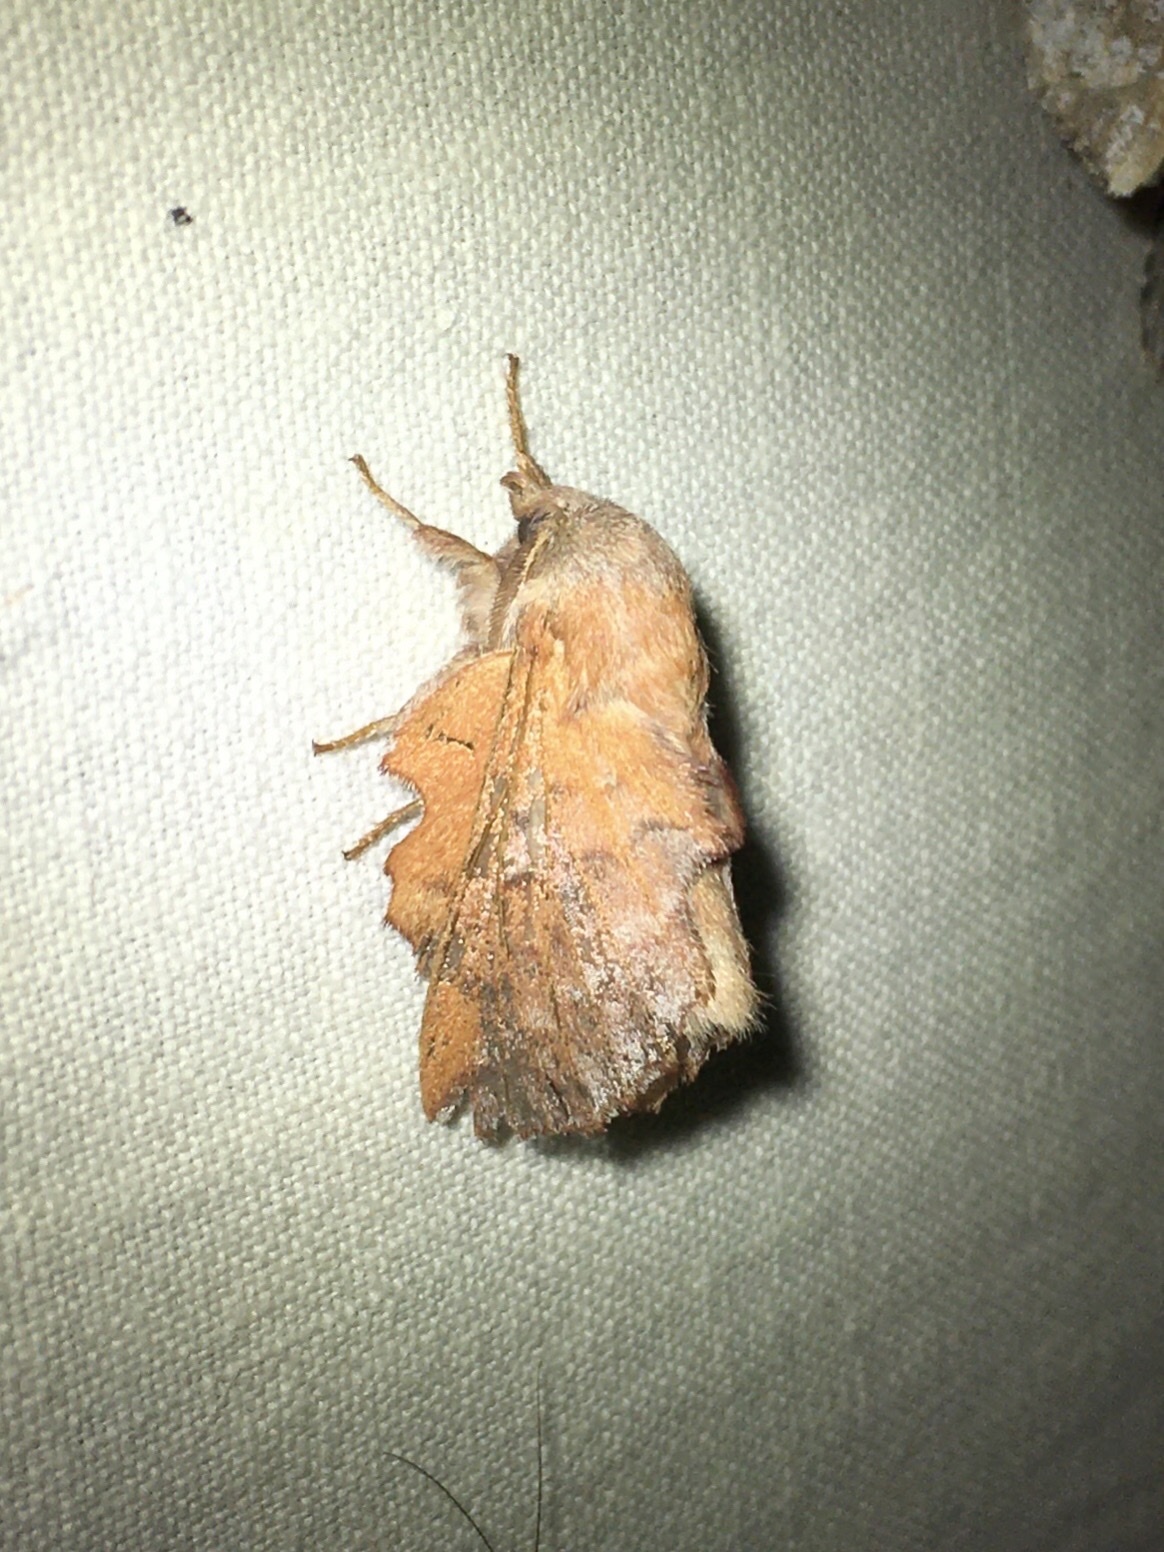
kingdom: Animalia
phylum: Arthropoda
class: Insecta
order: Lepidoptera
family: Lasiocampidae
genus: Phyllodesma
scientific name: Phyllodesma americana
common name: American lappet moth
